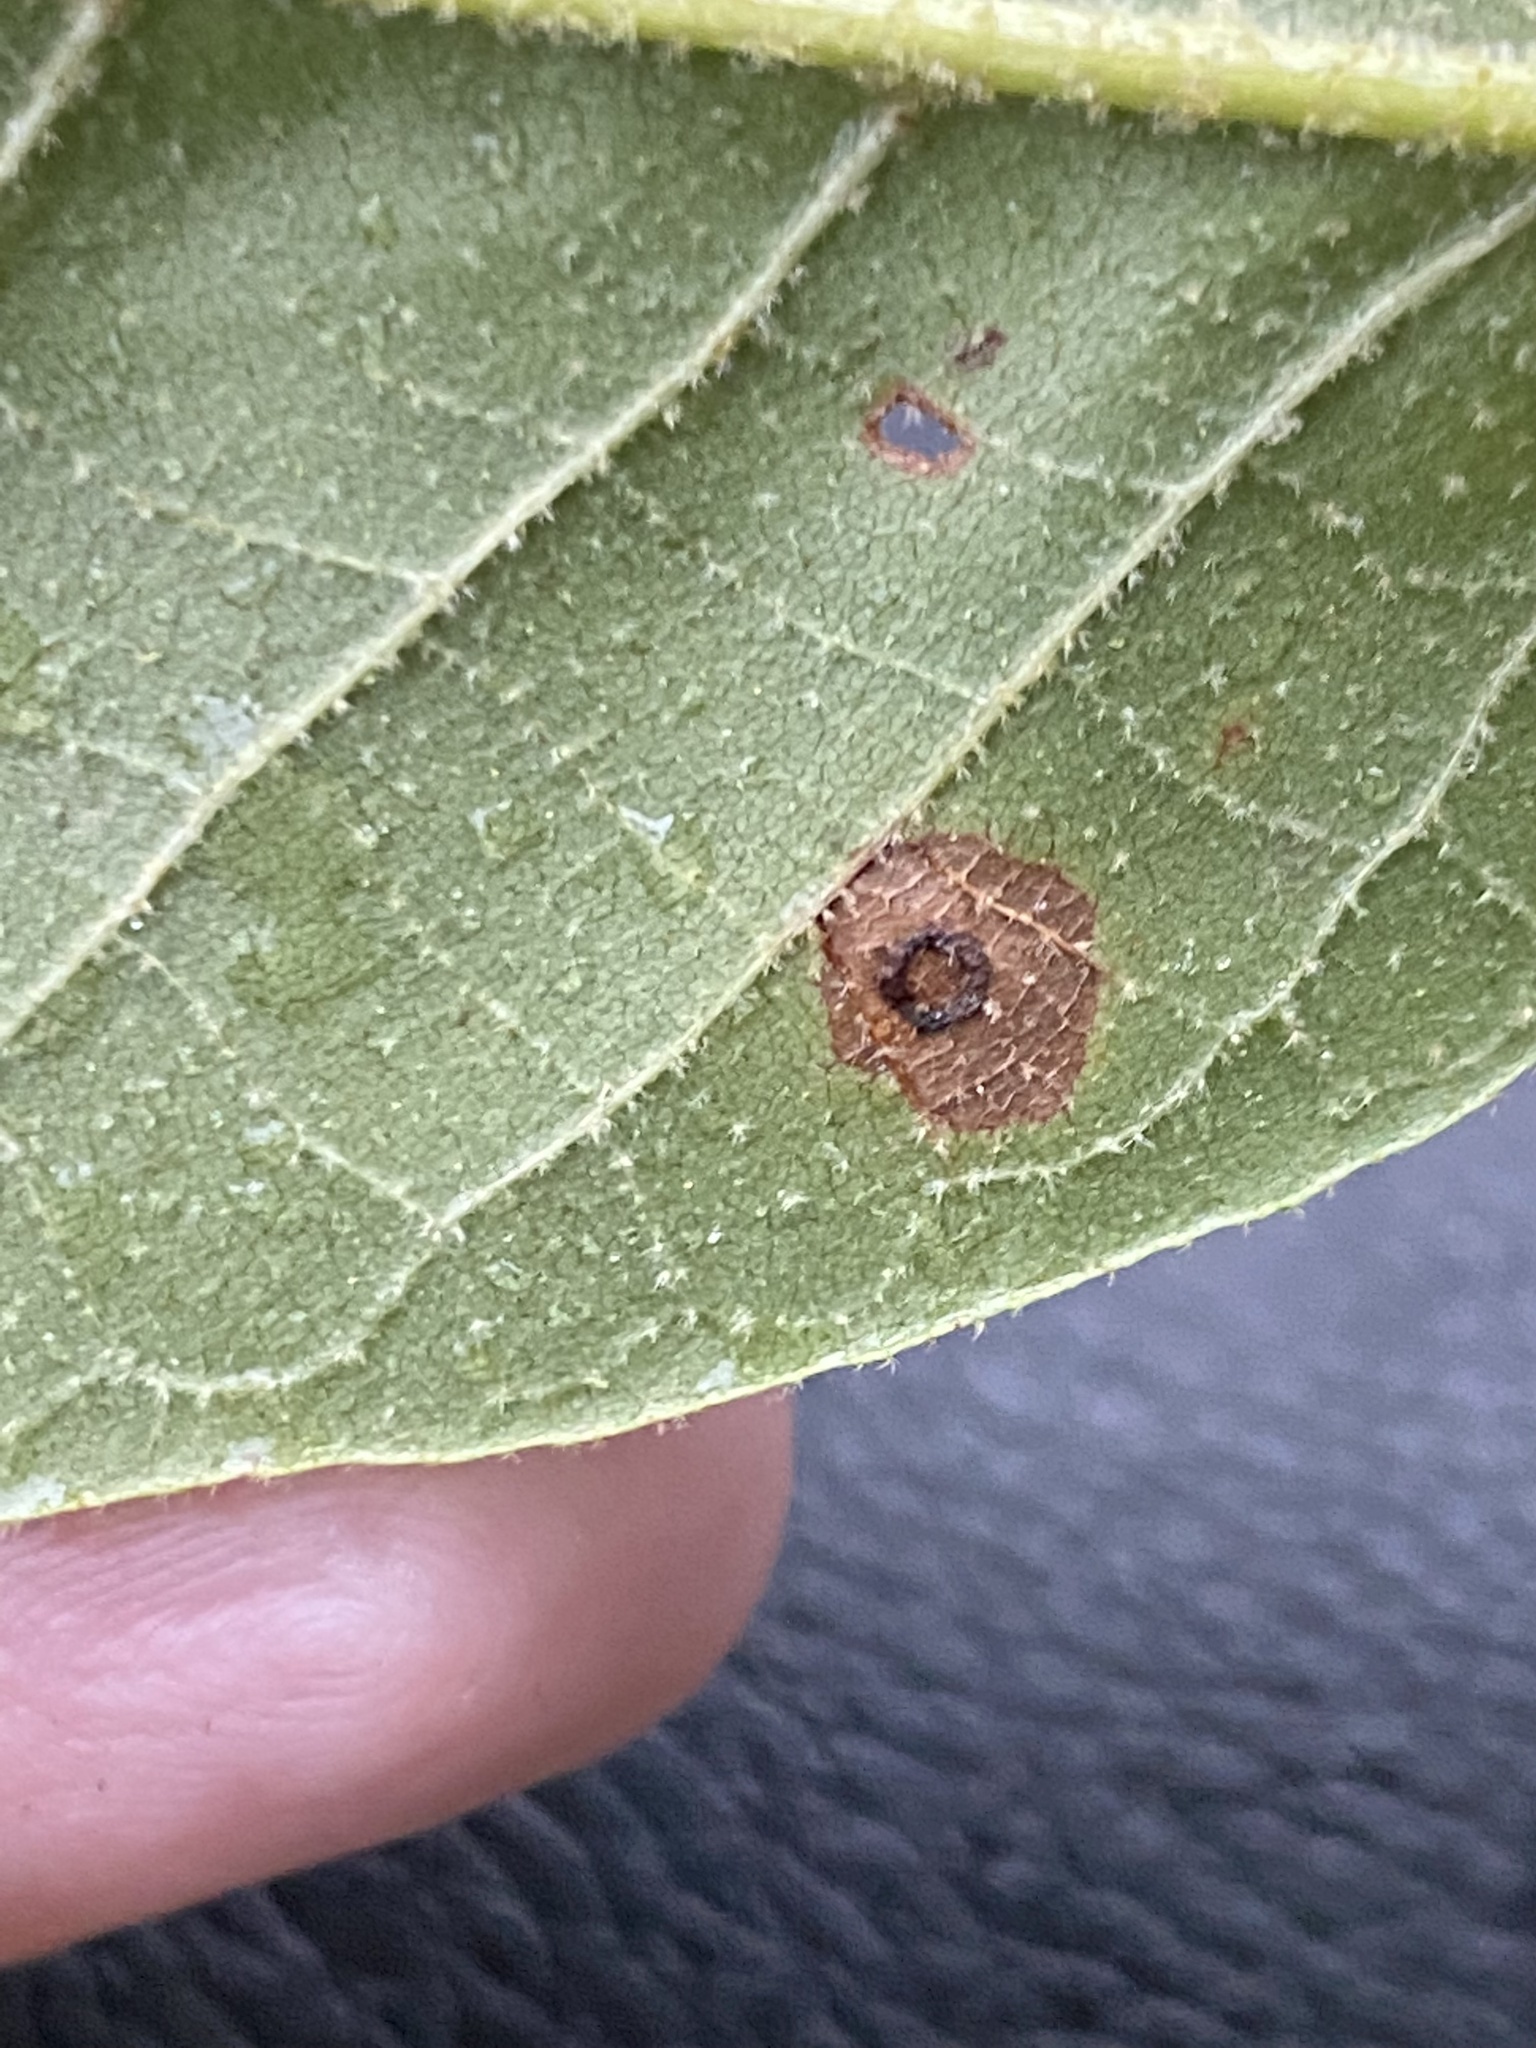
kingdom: Animalia
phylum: Arthropoda
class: Insecta
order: Diptera
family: Cecidomyiidae
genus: Gliaspilota
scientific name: Gliaspilota glutinosa
